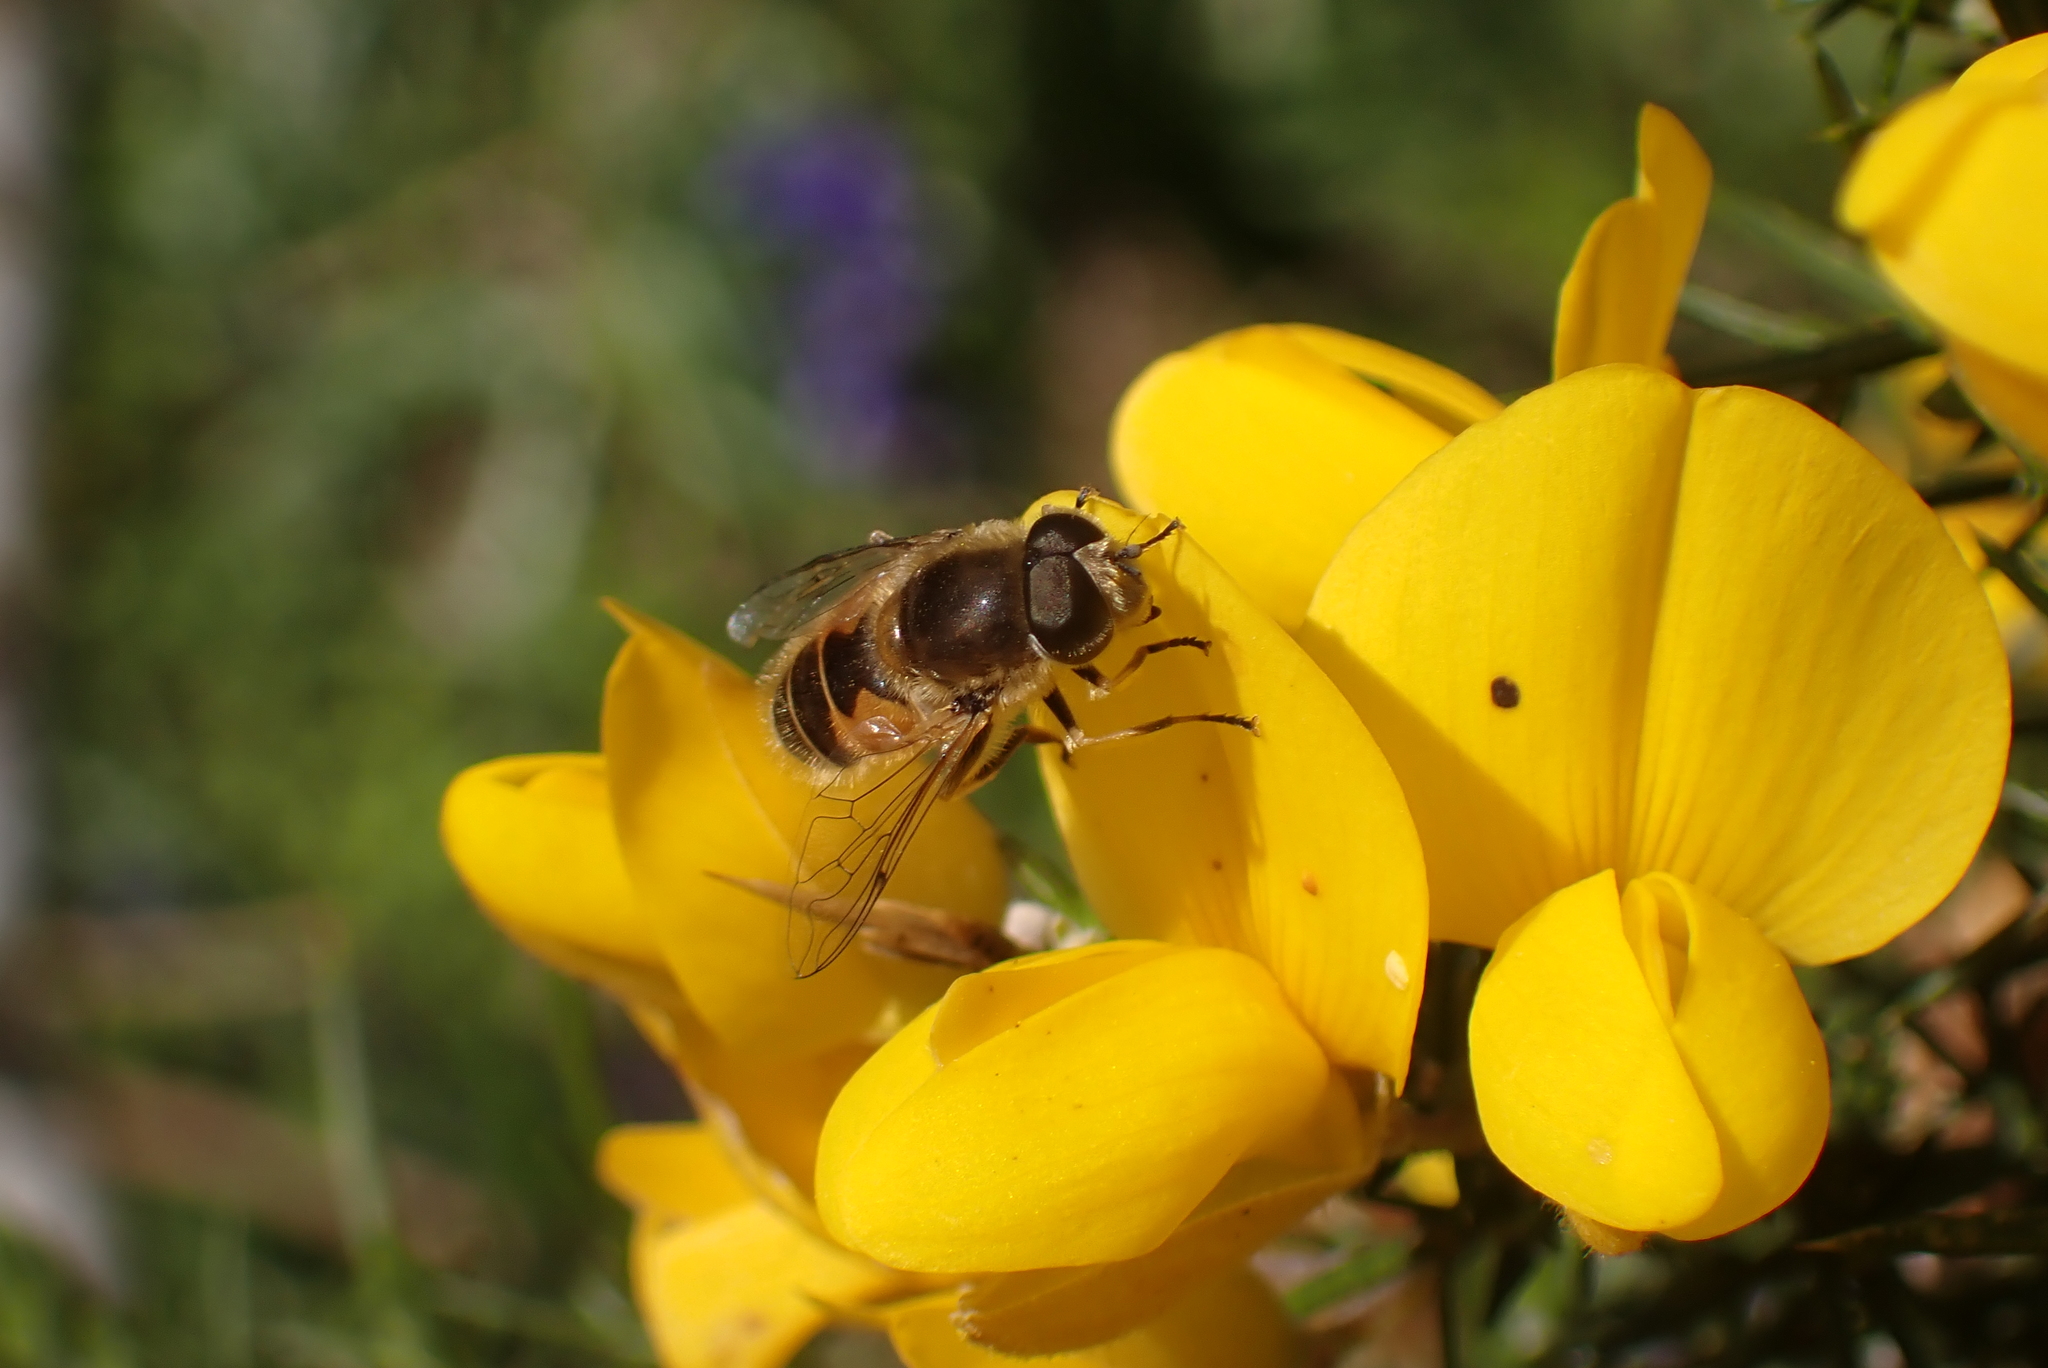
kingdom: Animalia
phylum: Arthropoda
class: Insecta
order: Diptera
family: Syrphidae
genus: Eristalis
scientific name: Eristalis arbustorum
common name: Hover fly
